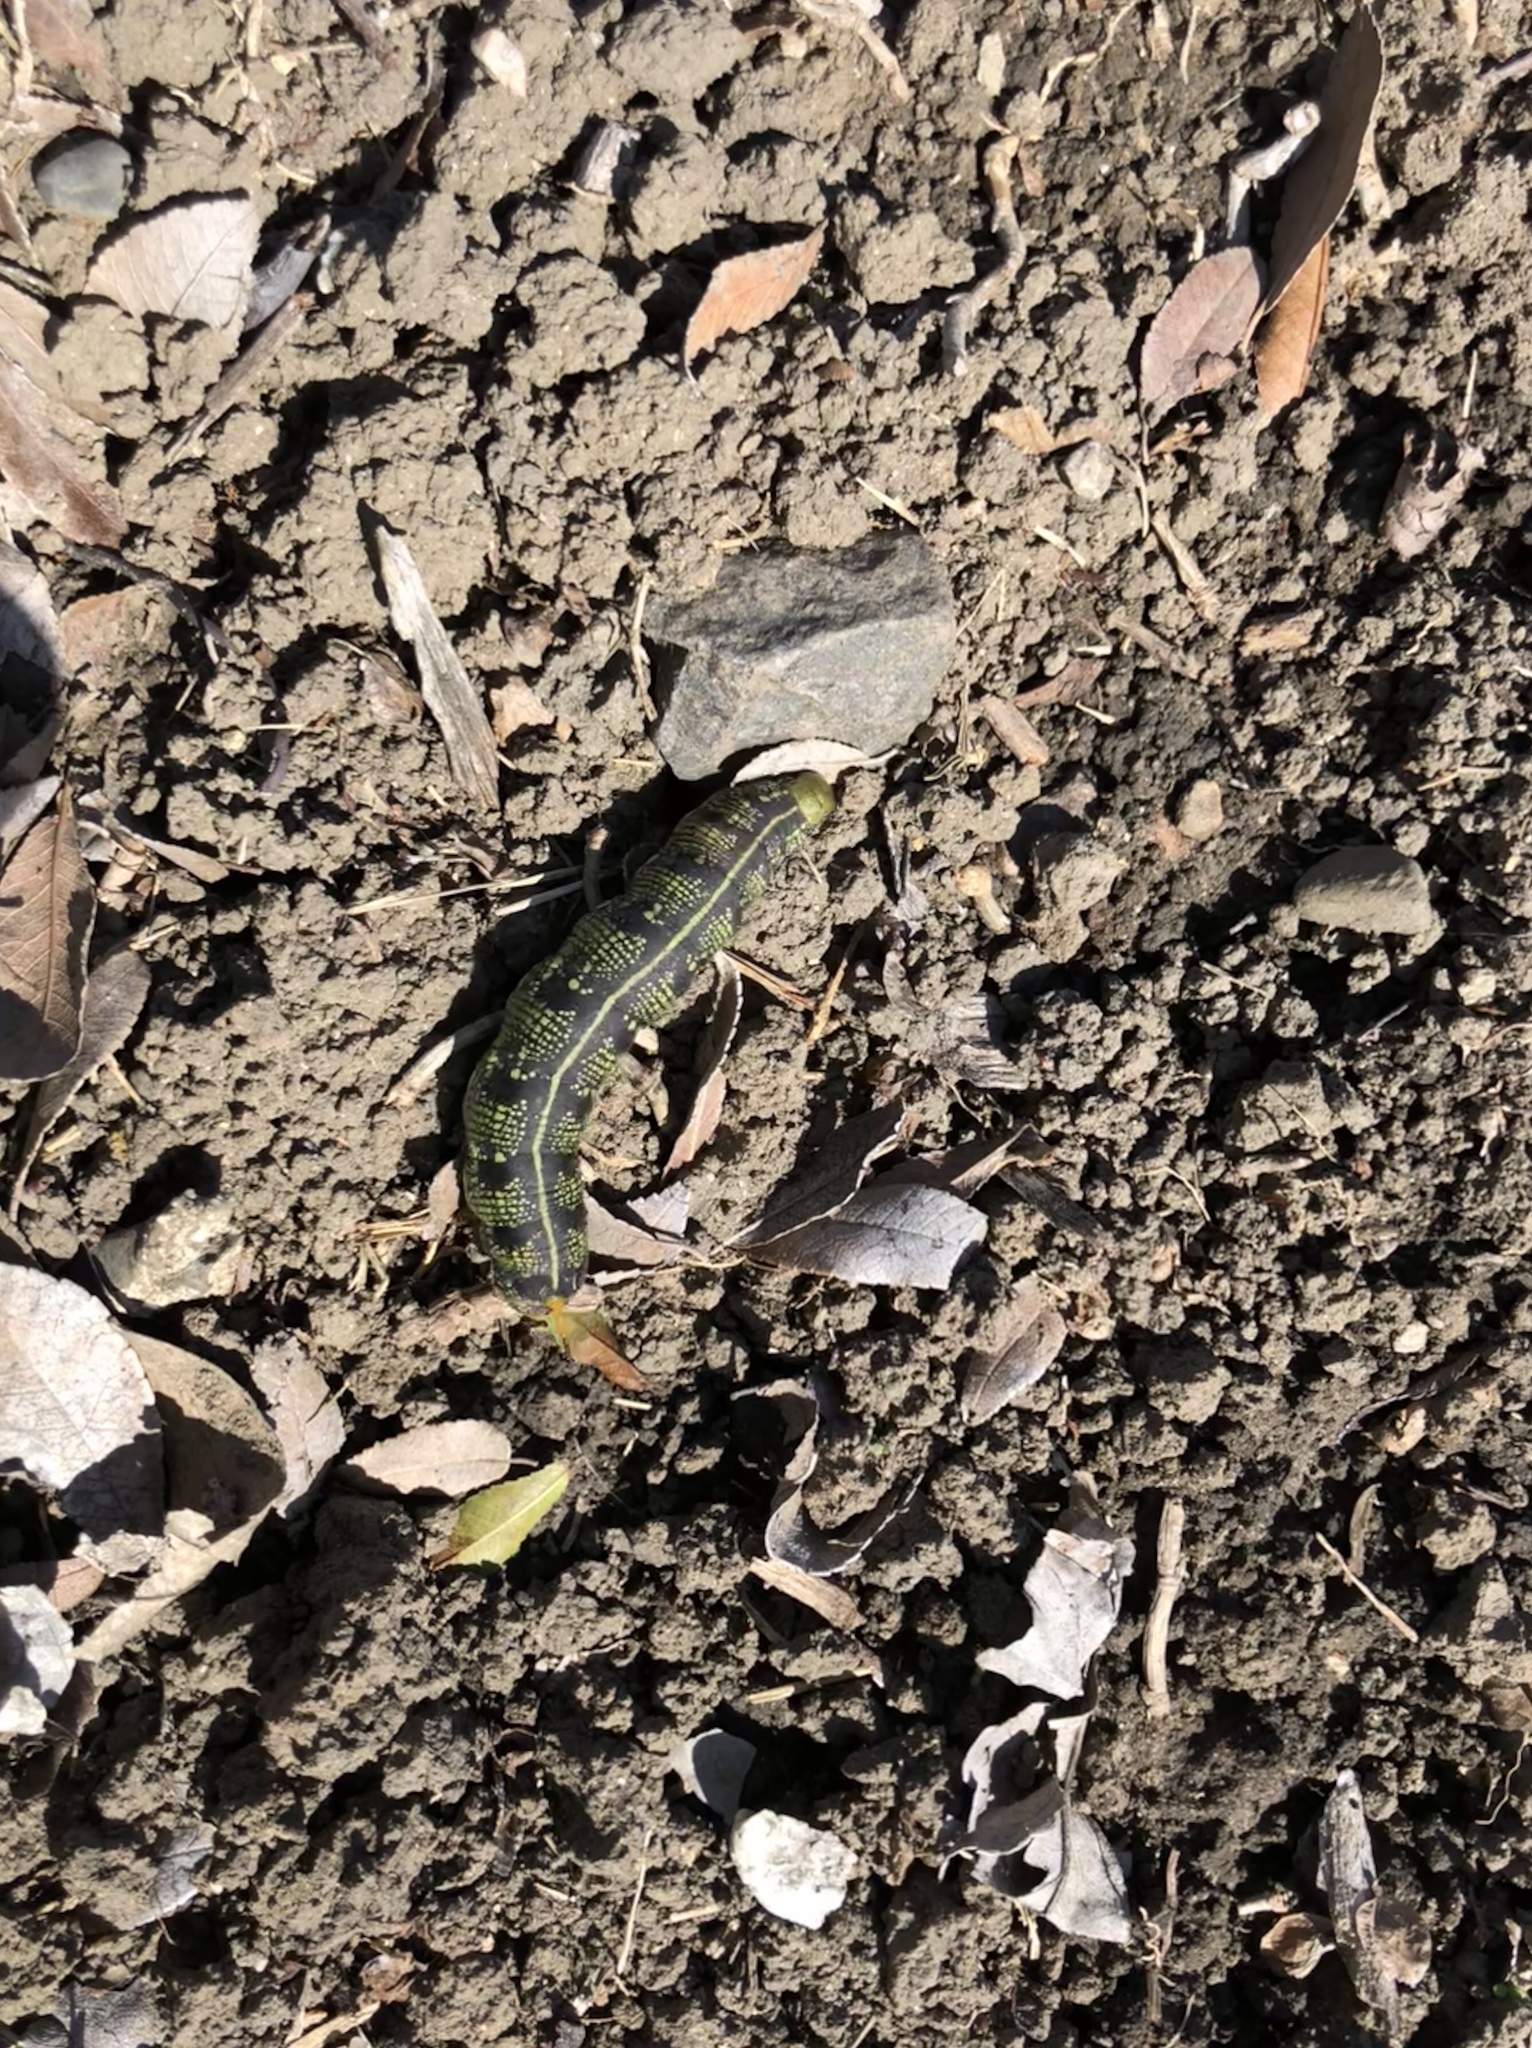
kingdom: Animalia
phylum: Arthropoda
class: Insecta
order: Lepidoptera
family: Sphingidae
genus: Hyles
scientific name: Hyles lineata
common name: White-lined sphinx
